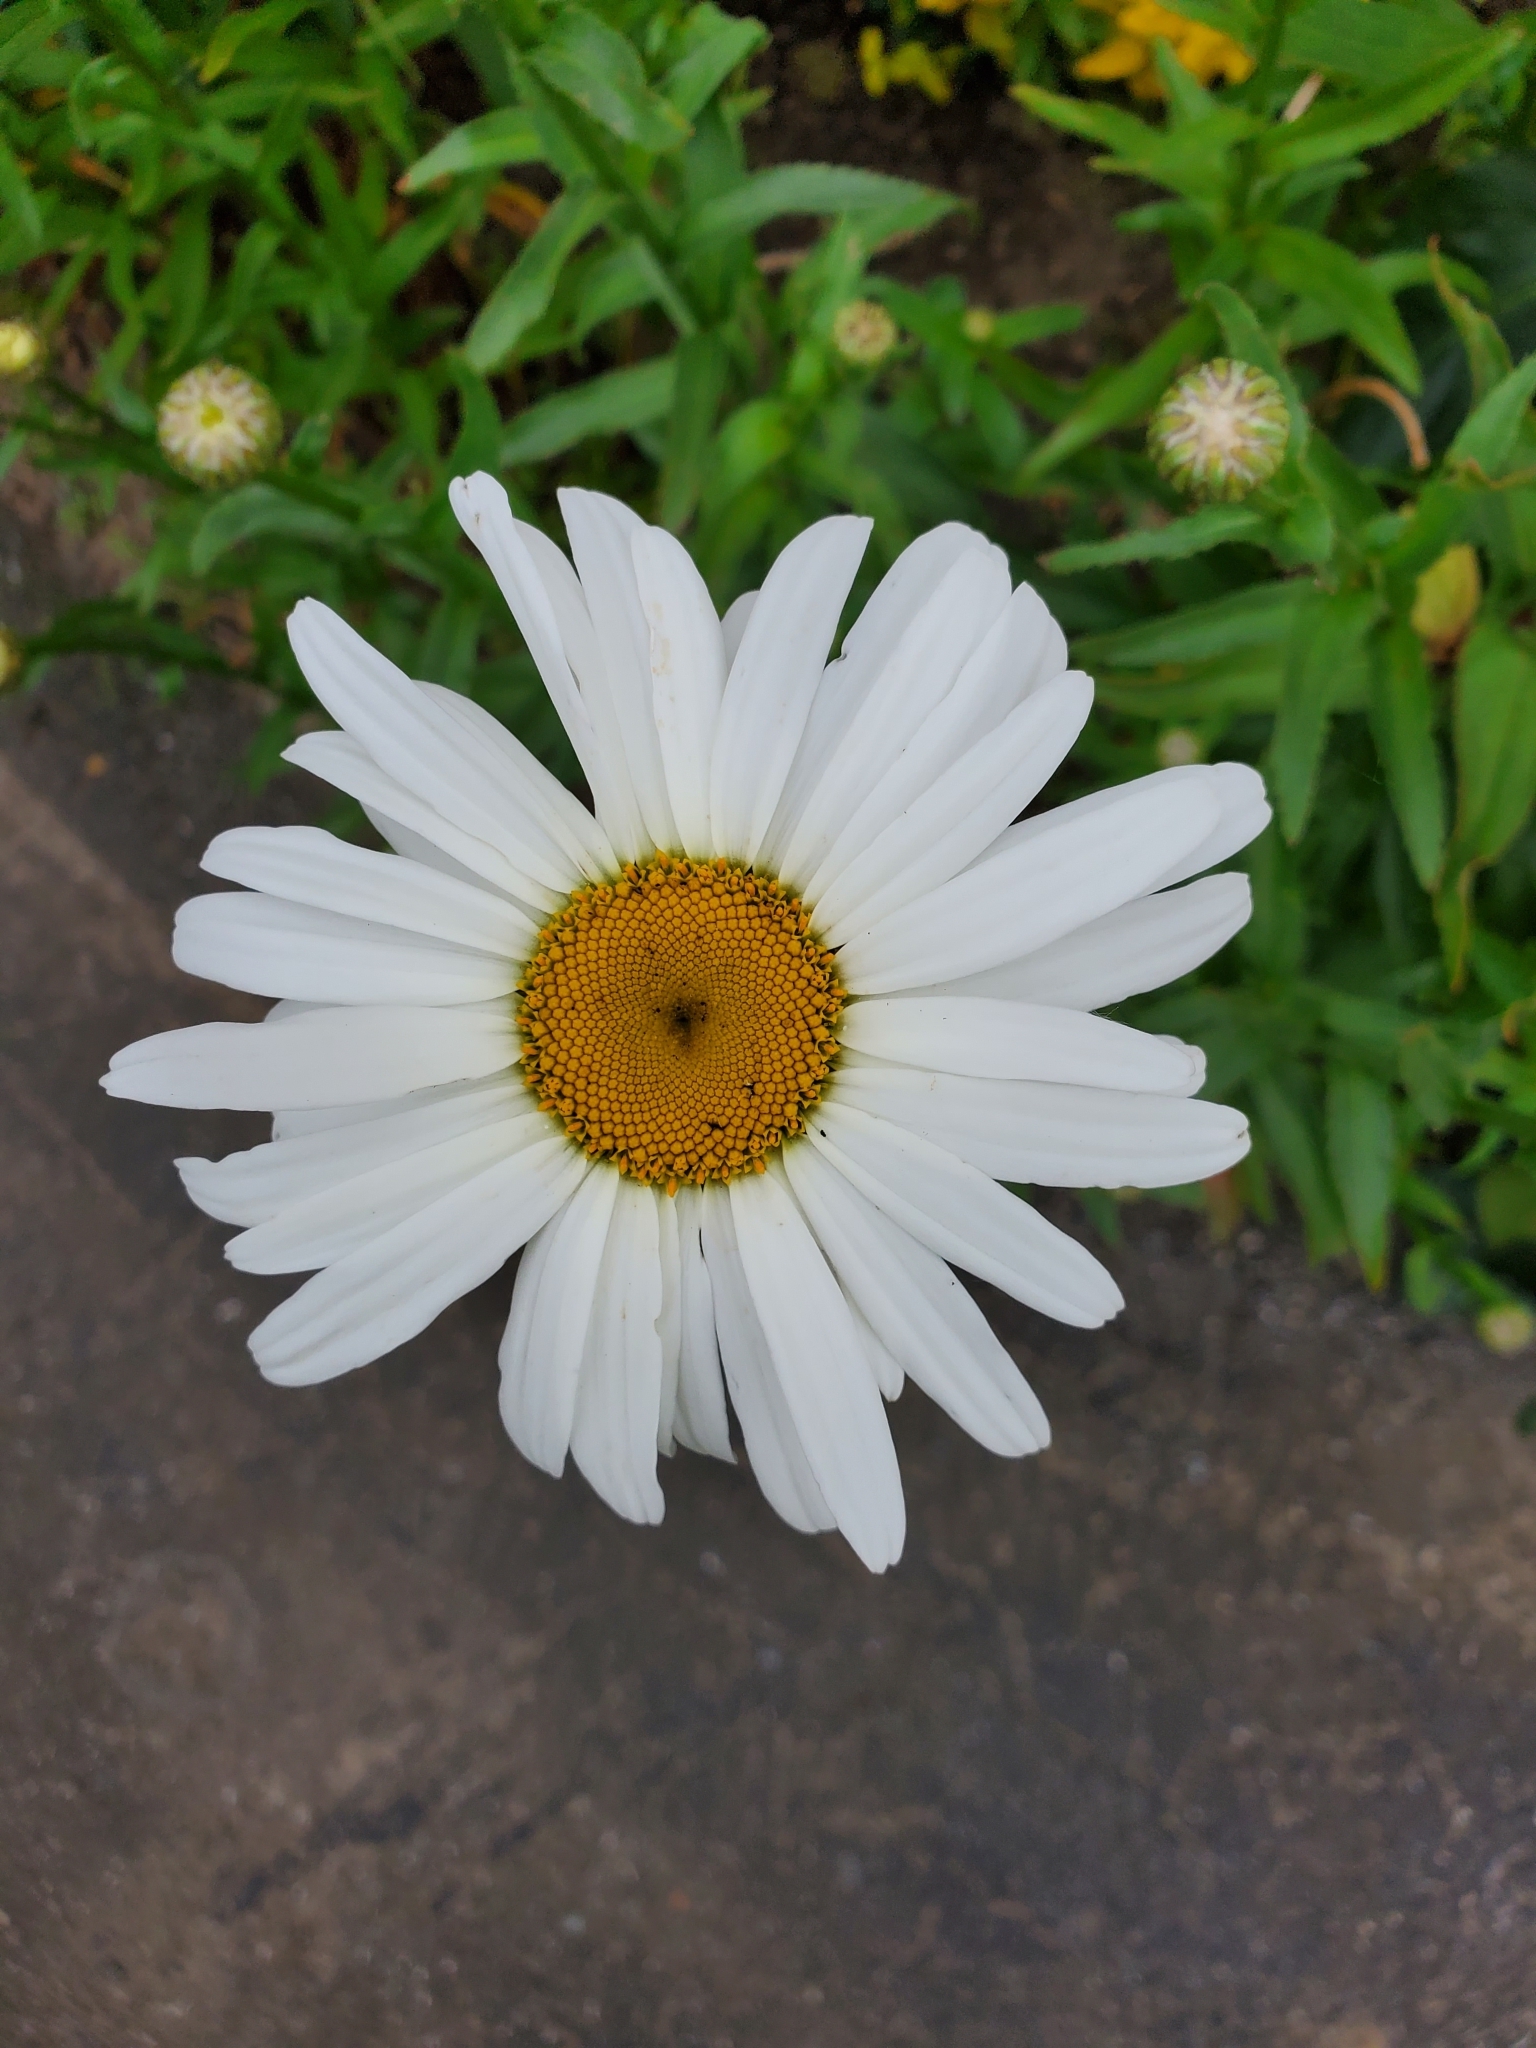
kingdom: Plantae
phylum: Tracheophyta
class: Magnoliopsida
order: Asterales
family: Asteraceae
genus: Leucanthemum
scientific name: Leucanthemum maximum
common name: Max chrysanthemum
